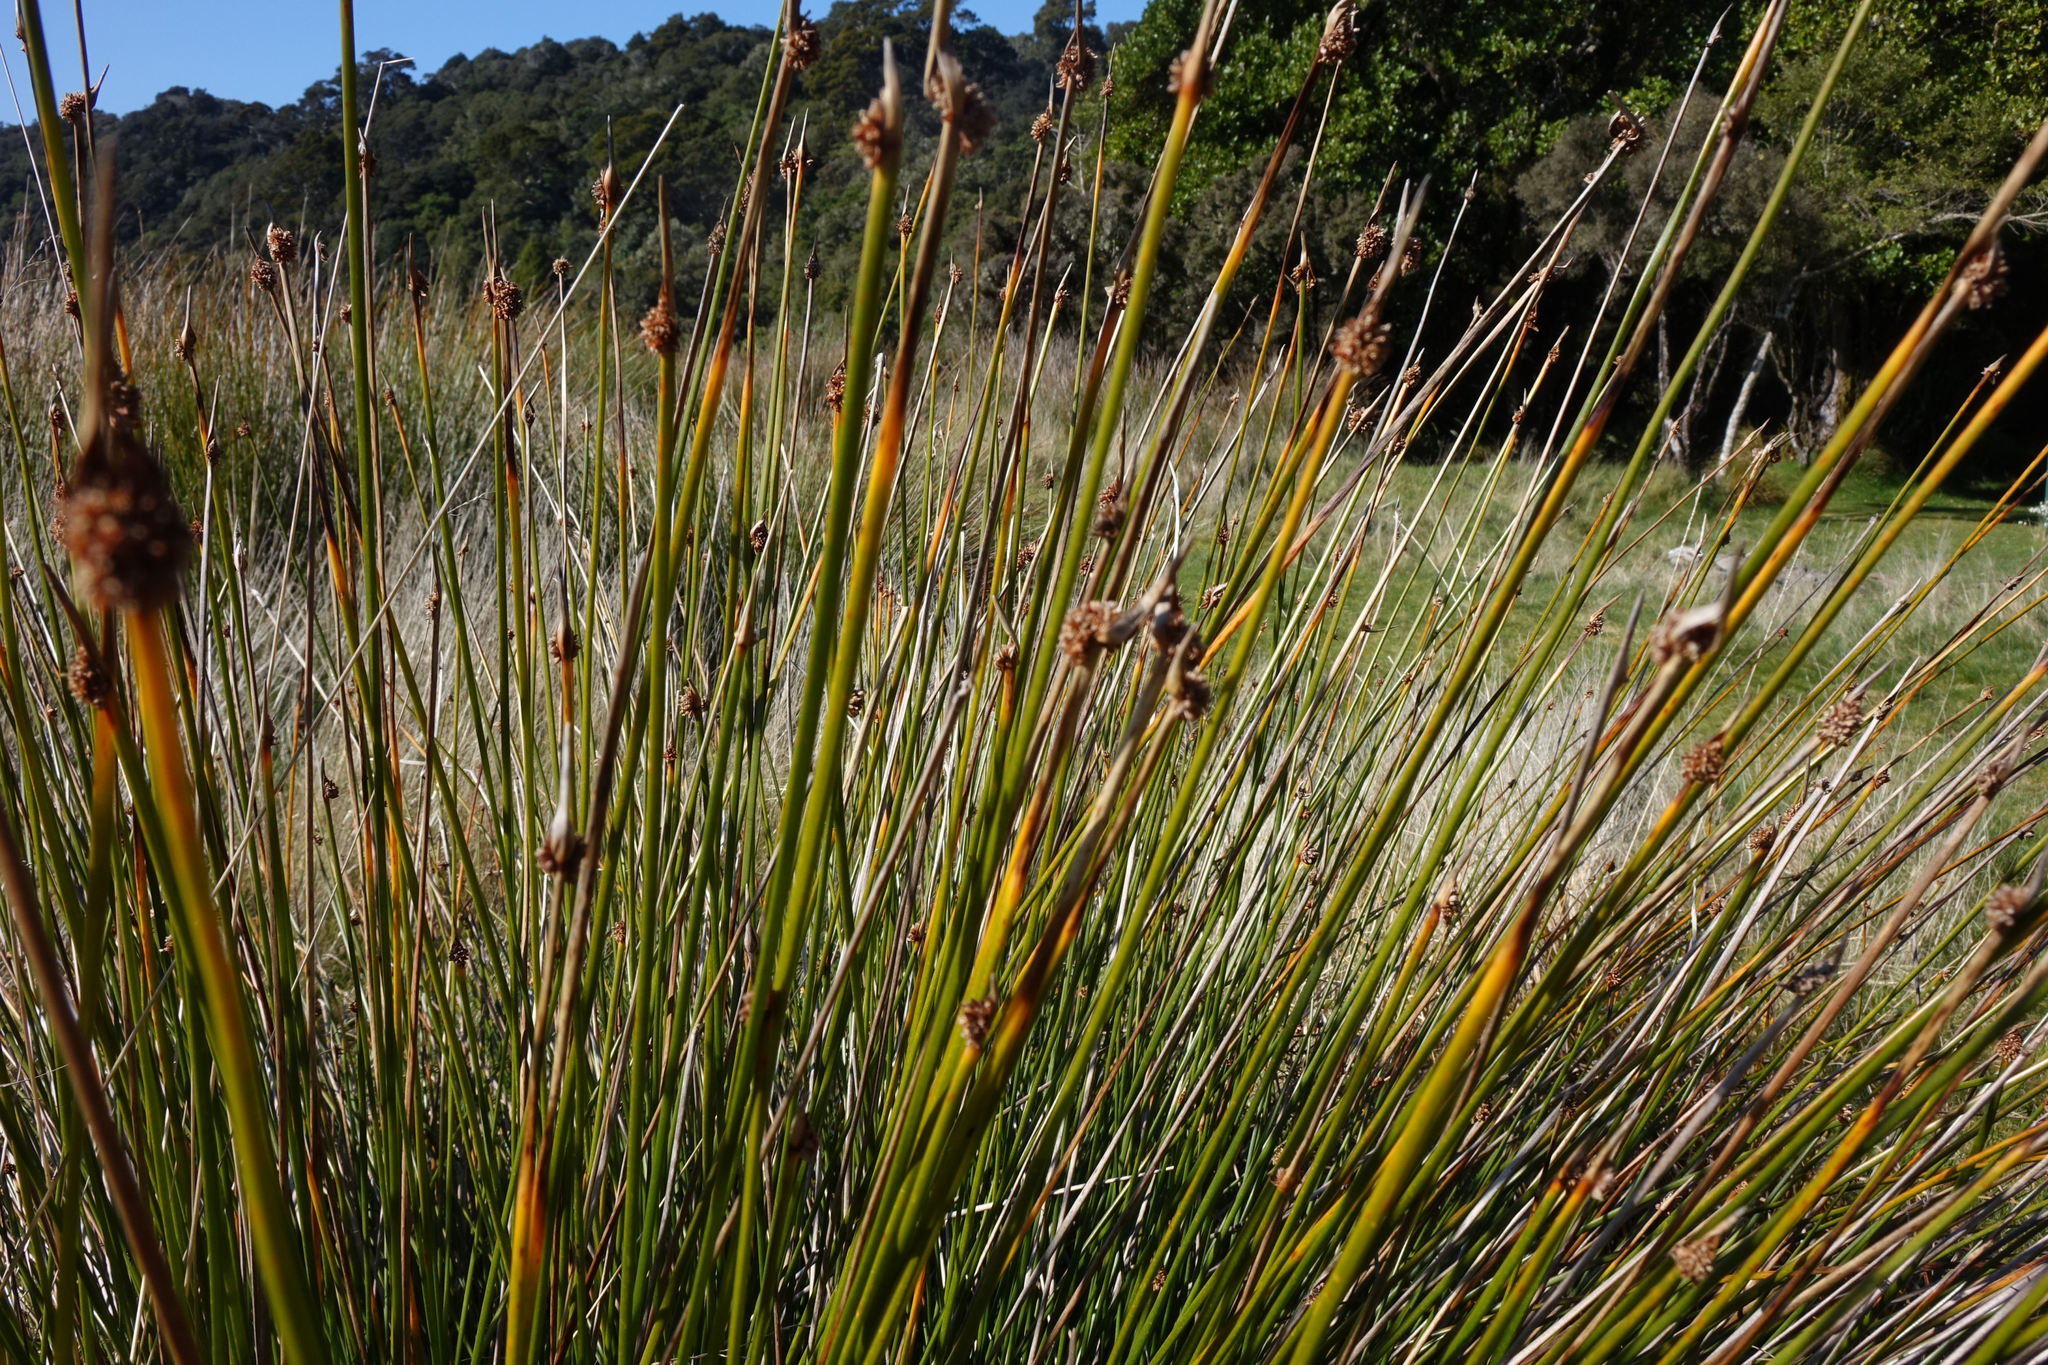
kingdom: Plantae
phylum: Tracheophyta
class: Liliopsida
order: Poales
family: Cyperaceae
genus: Ficinia
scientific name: Ficinia nodosa
